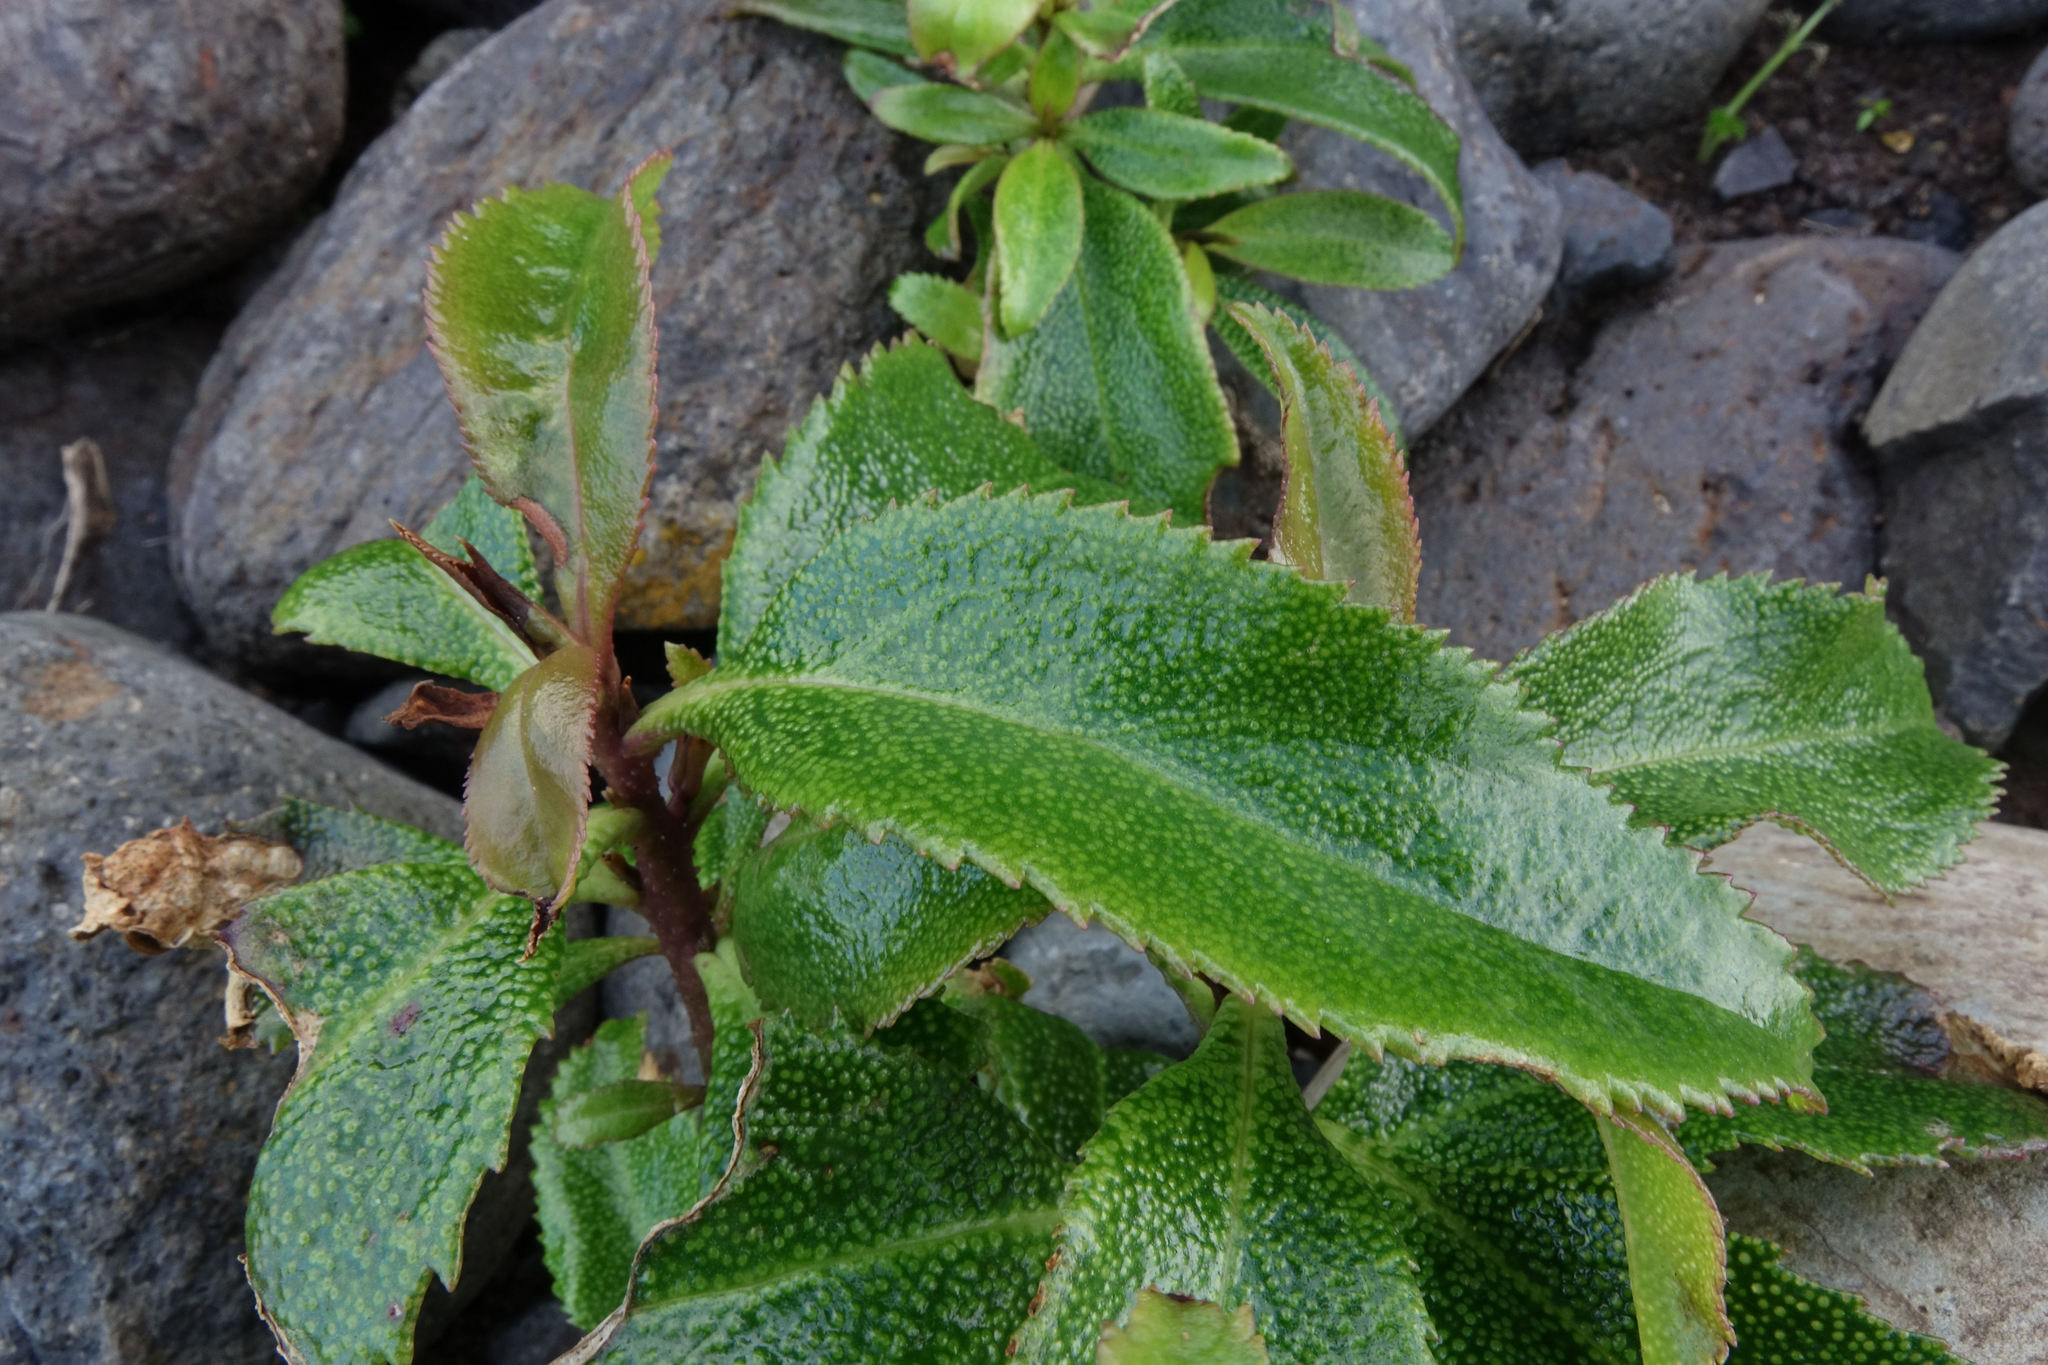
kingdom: Plantae
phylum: Tracheophyta
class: Magnoliopsida
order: Lamiales
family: Scrophulariaceae
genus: Myoporum
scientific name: Myoporum laetum
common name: Ngaio tree
